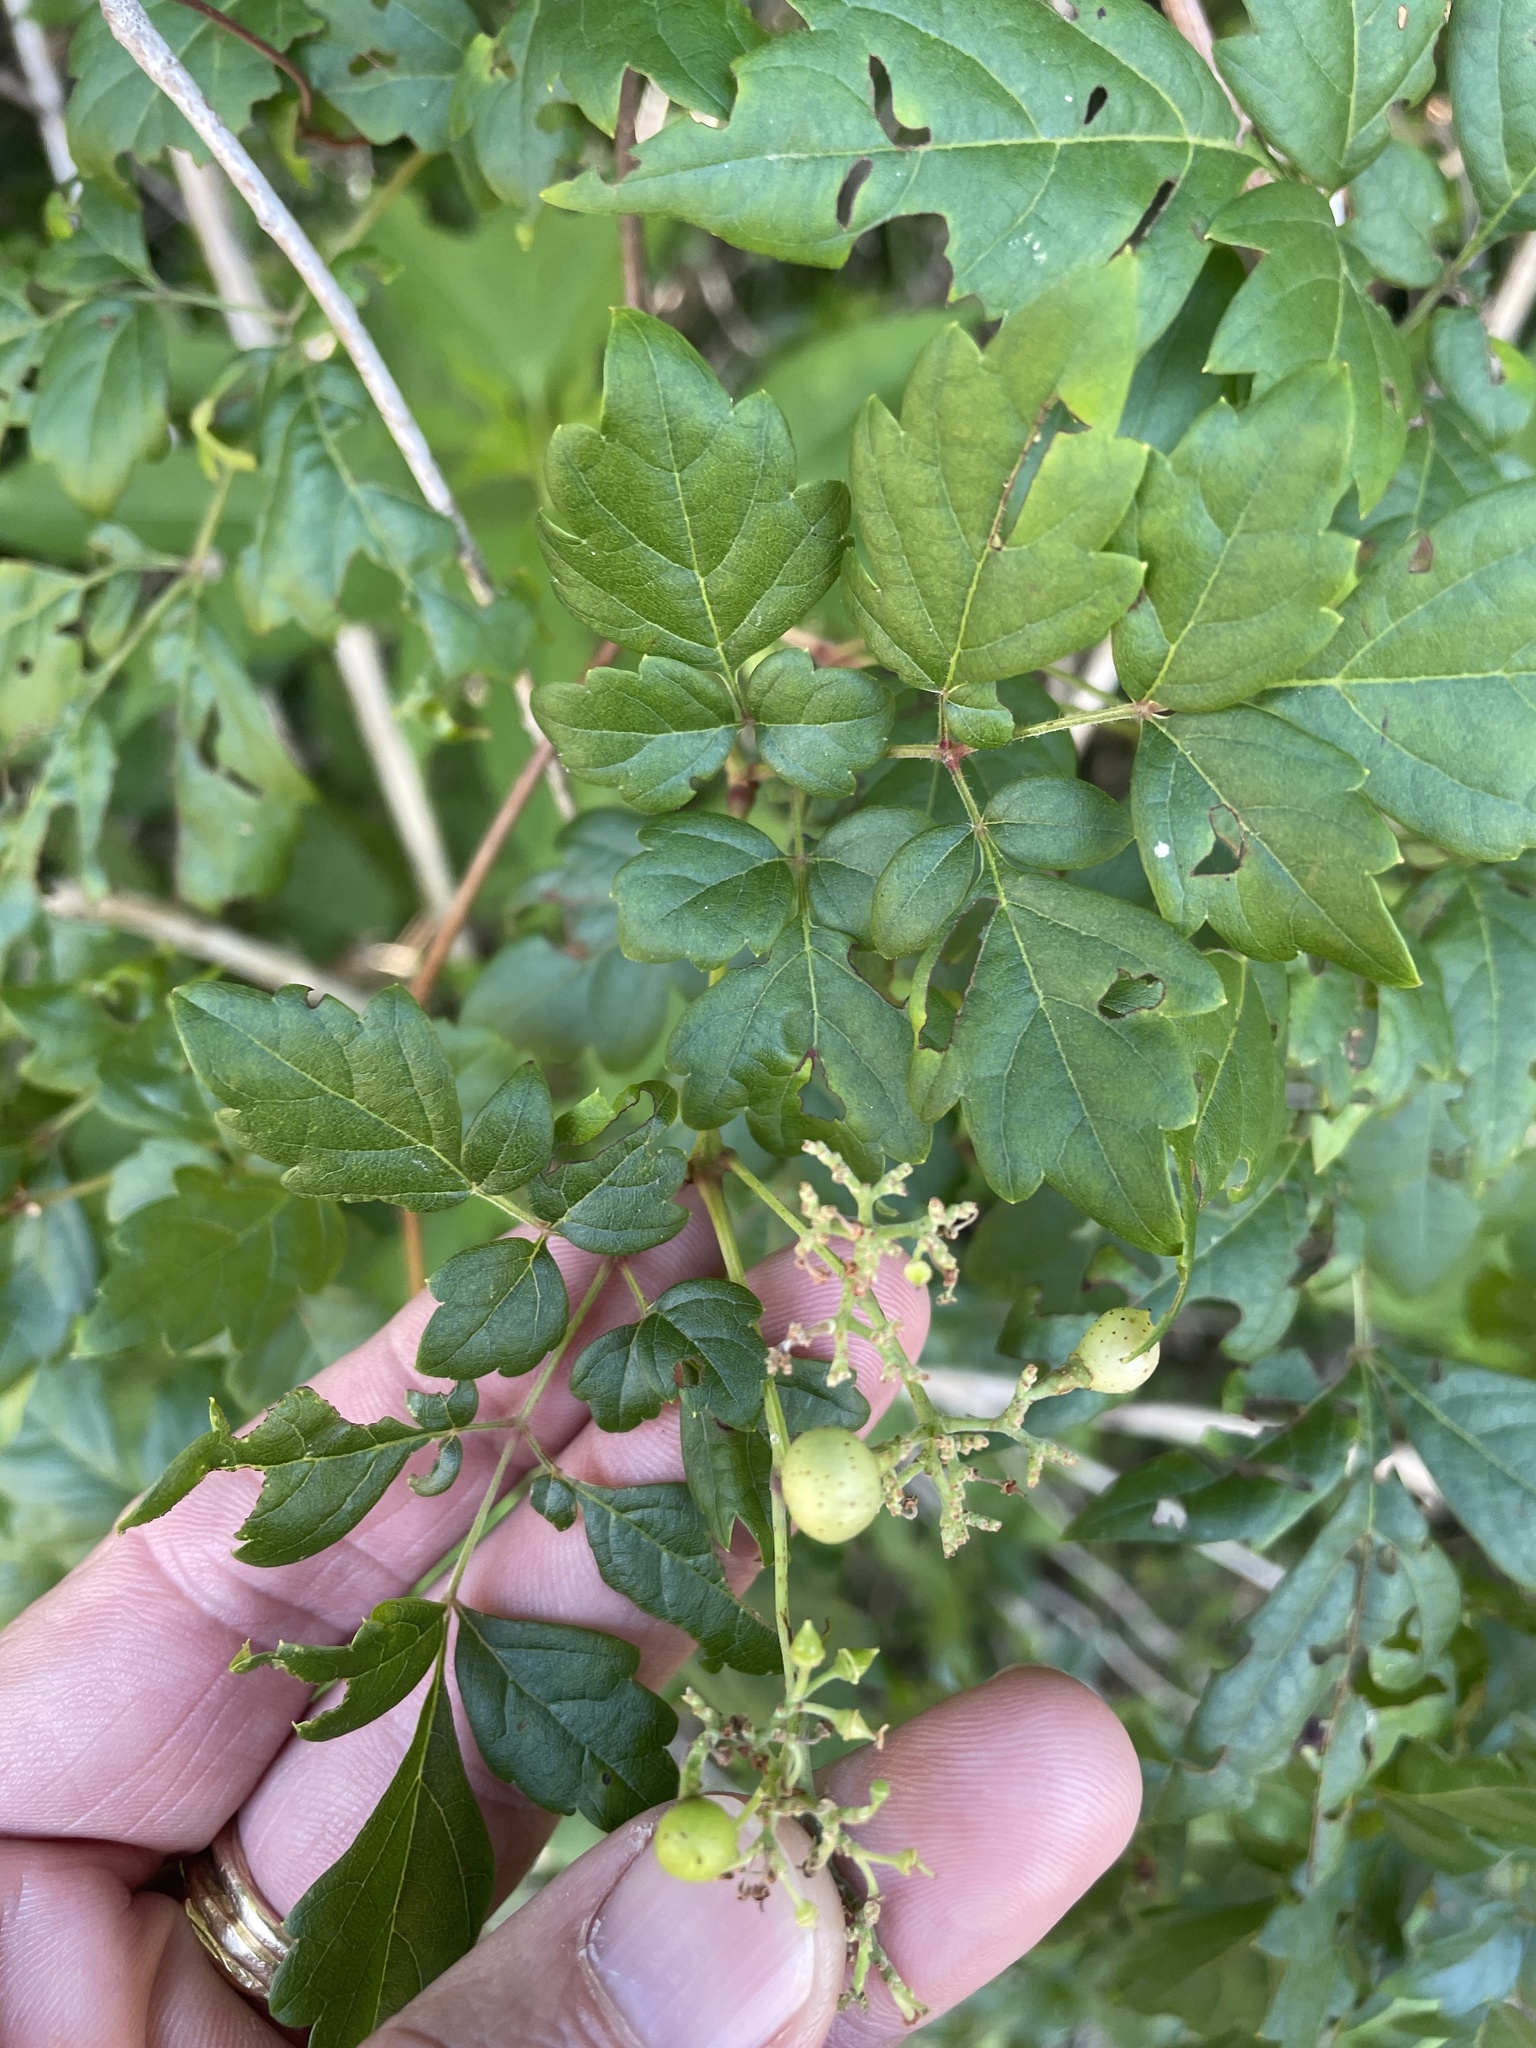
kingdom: Plantae
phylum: Tracheophyta
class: Magnoliopsida
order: Vitales
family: Vitaceae
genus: Nekemias
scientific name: Nekemias arborea
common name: Peppervine
